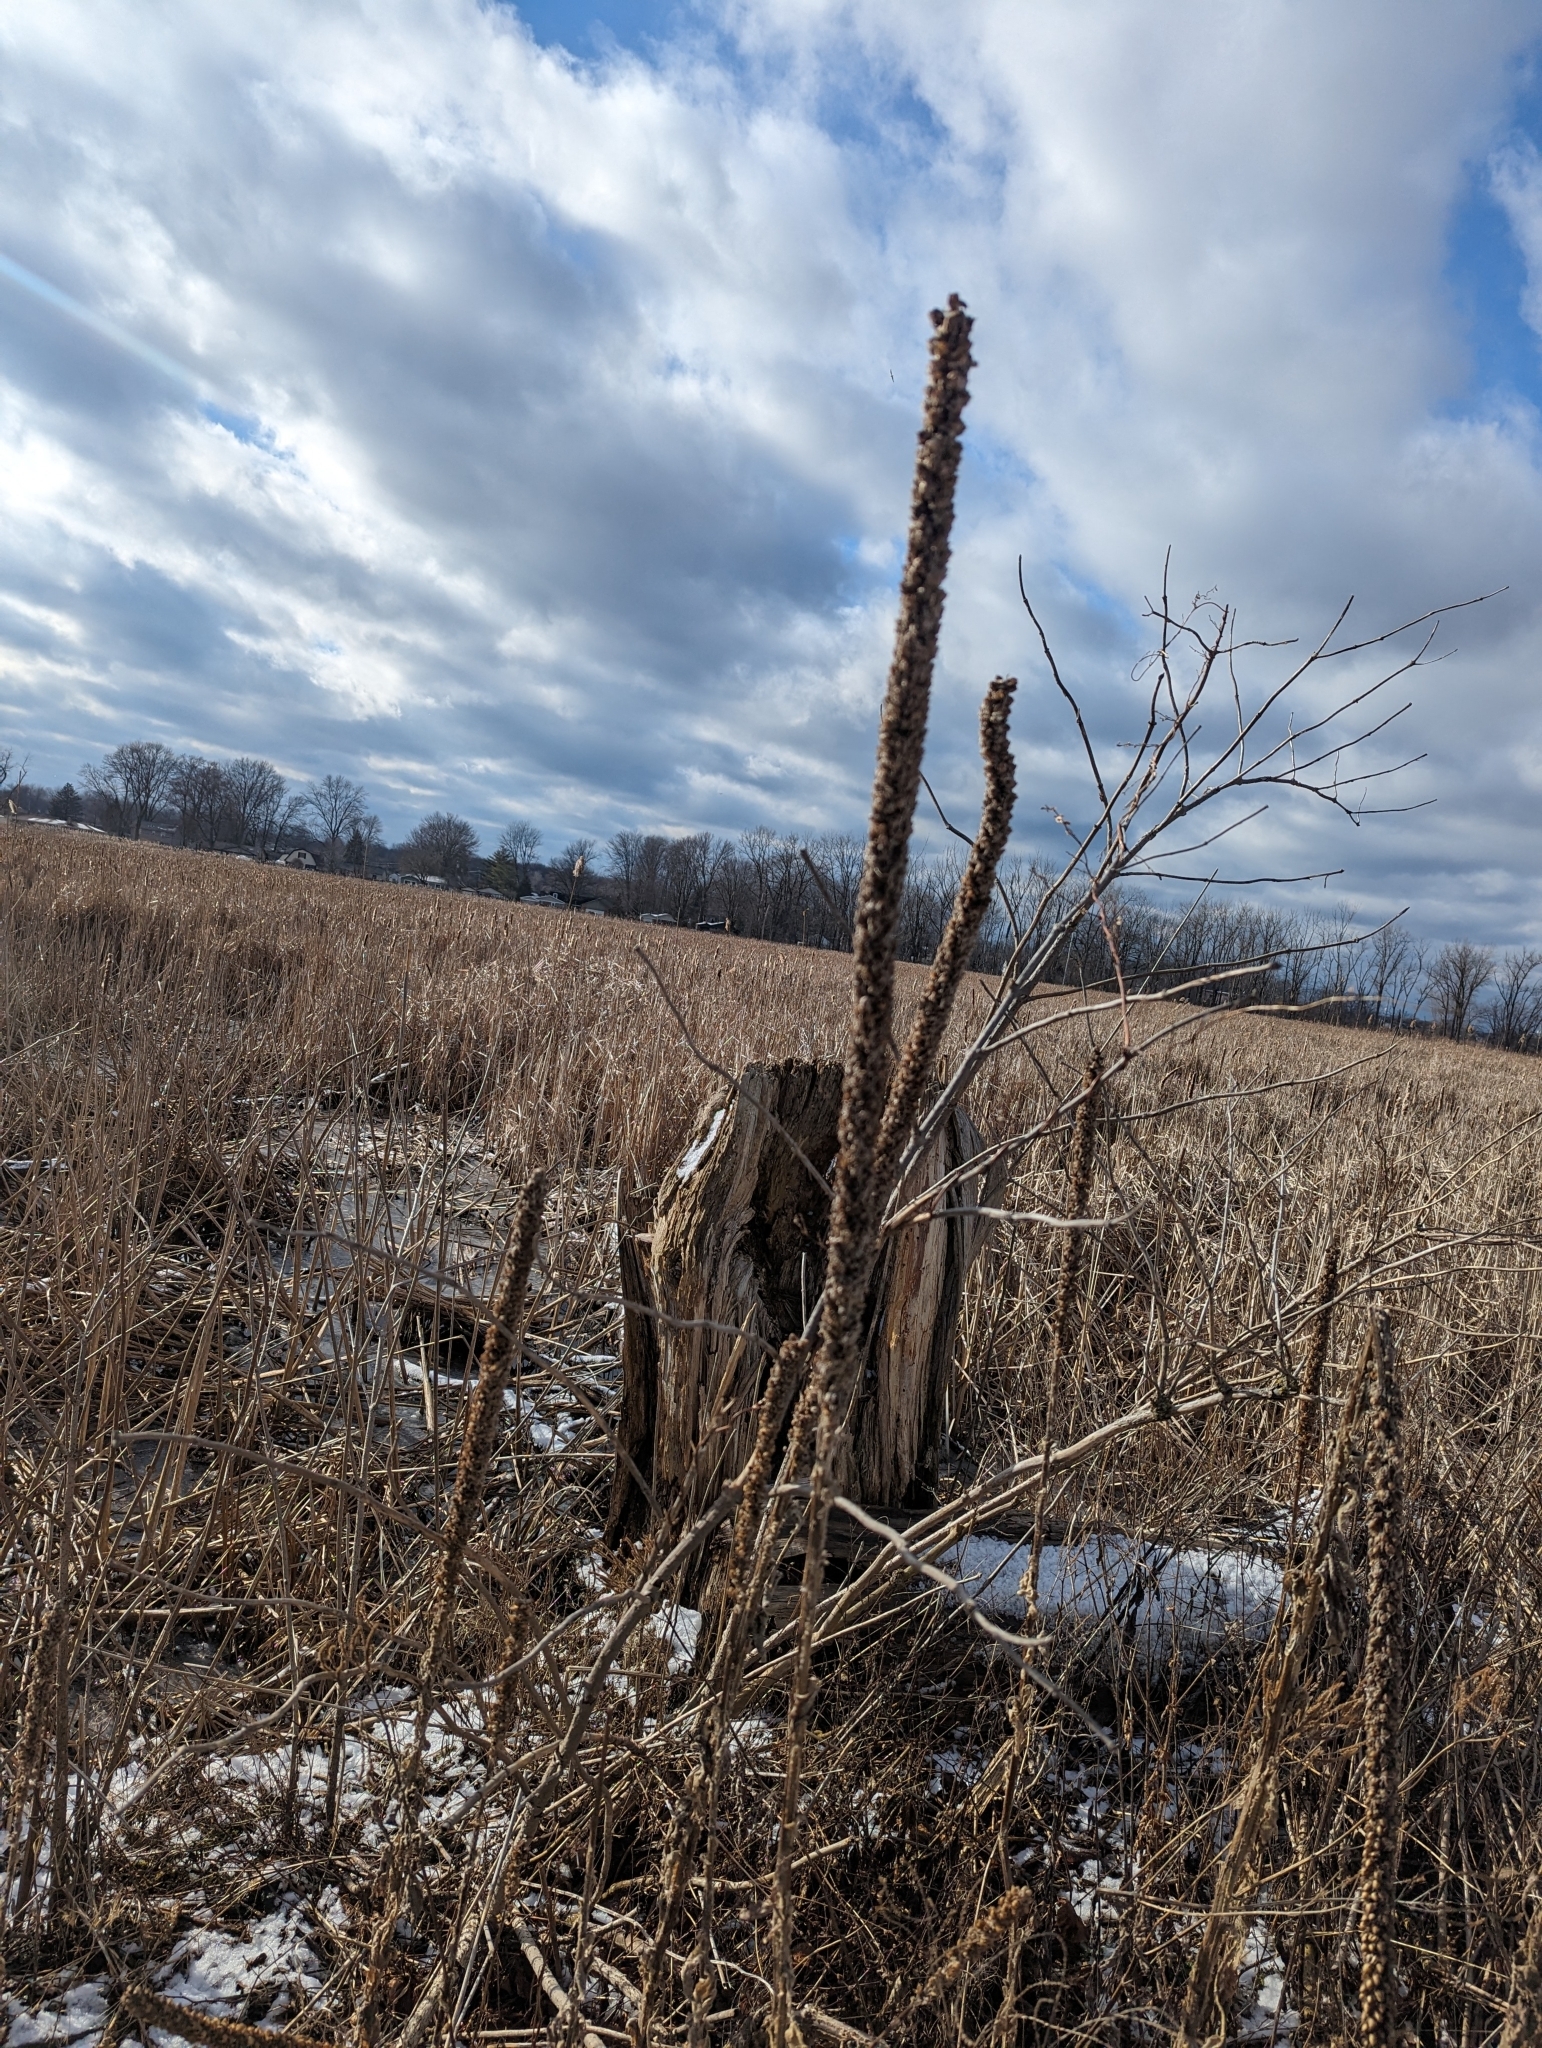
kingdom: Plantae
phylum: Tracheophyta
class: Magnoliopsida
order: Lamiales
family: Scrophulariaceae
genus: Verbascum
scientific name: Verbascum thapsus
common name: Common mullein
